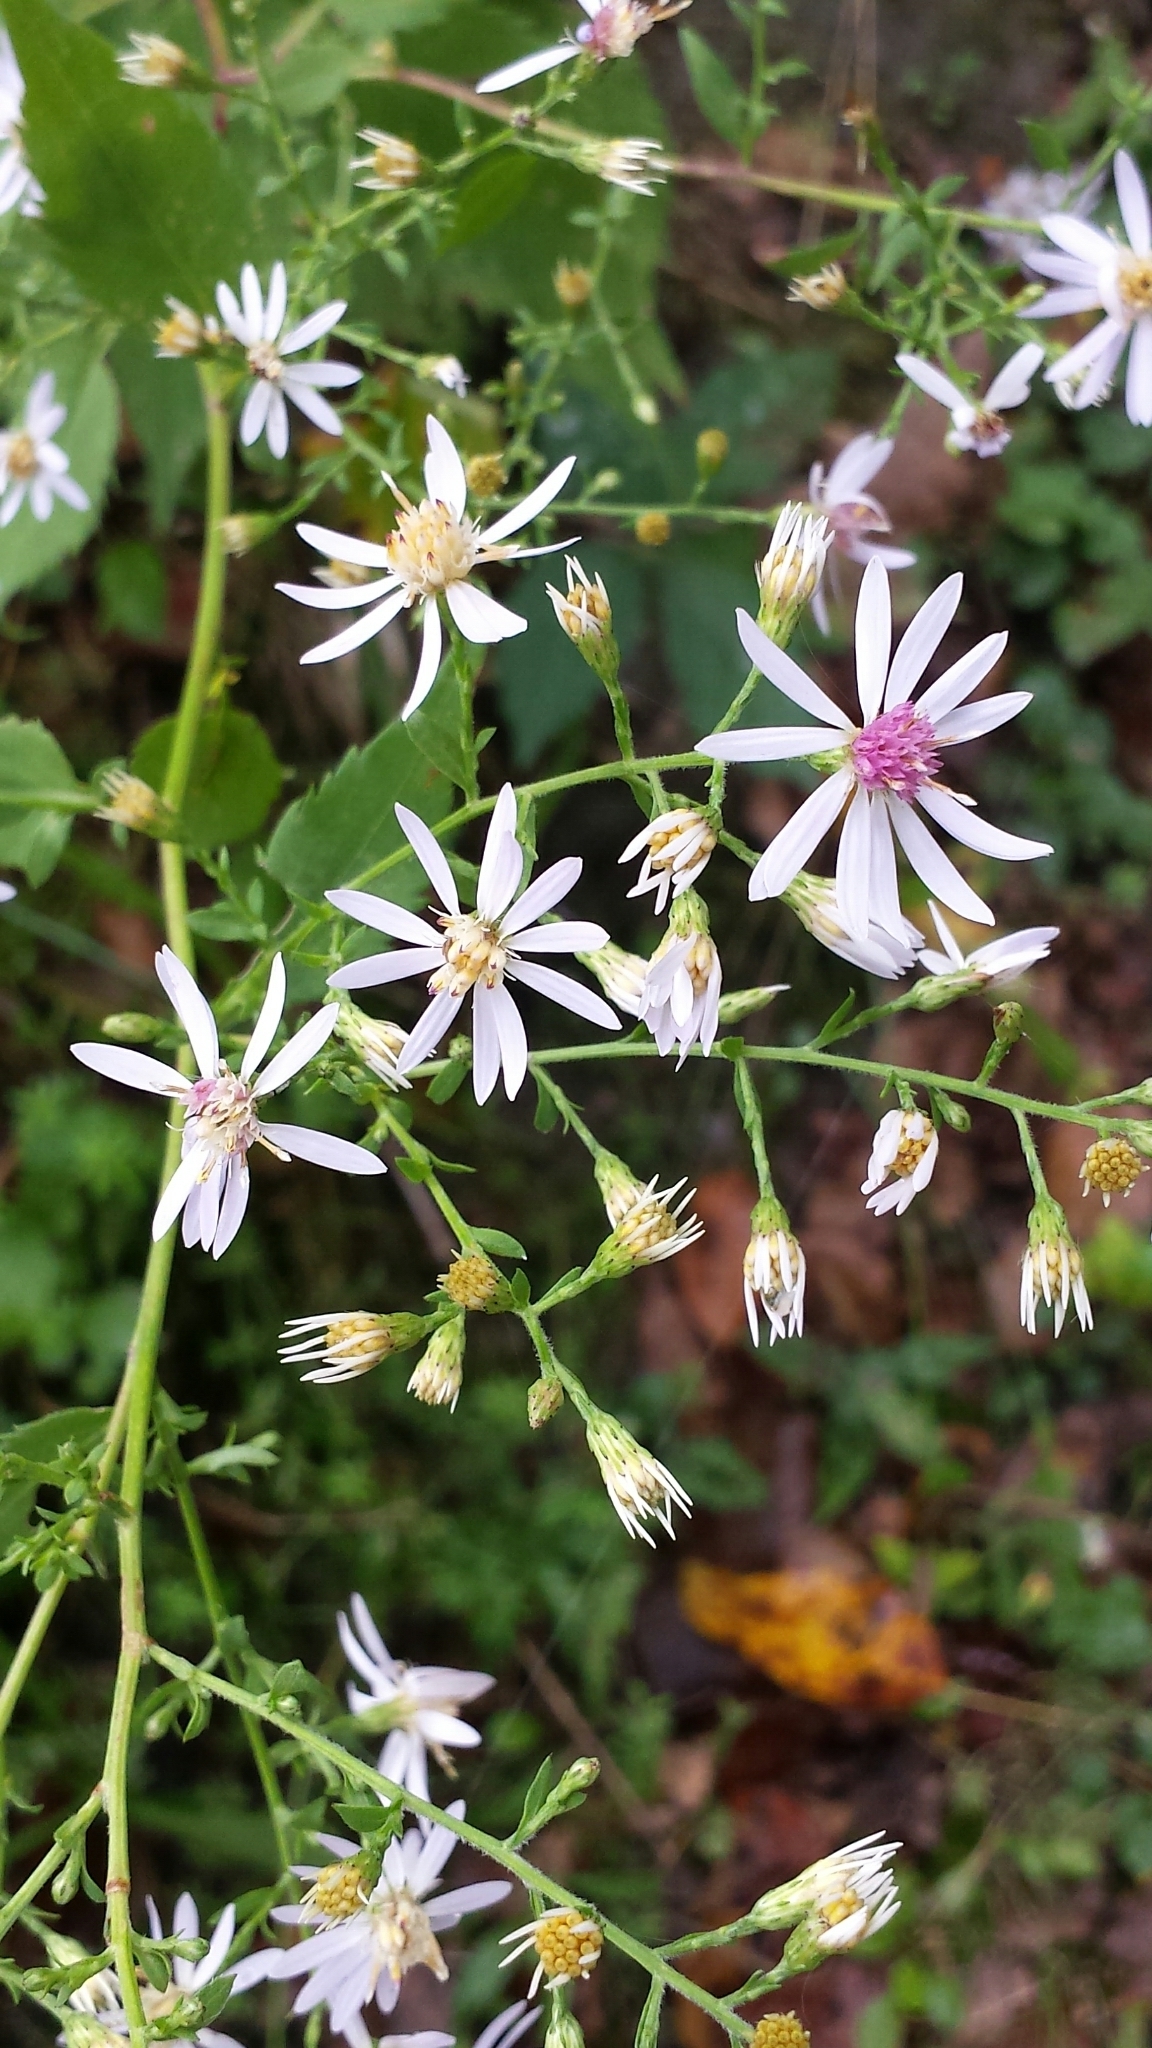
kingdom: Plantae
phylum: Tracheophyta
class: Magnoliopsida
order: Asterales
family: Asteraceae
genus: Symphyotrichum
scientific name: Symphyotrichum cordifolium
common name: Beeweed
